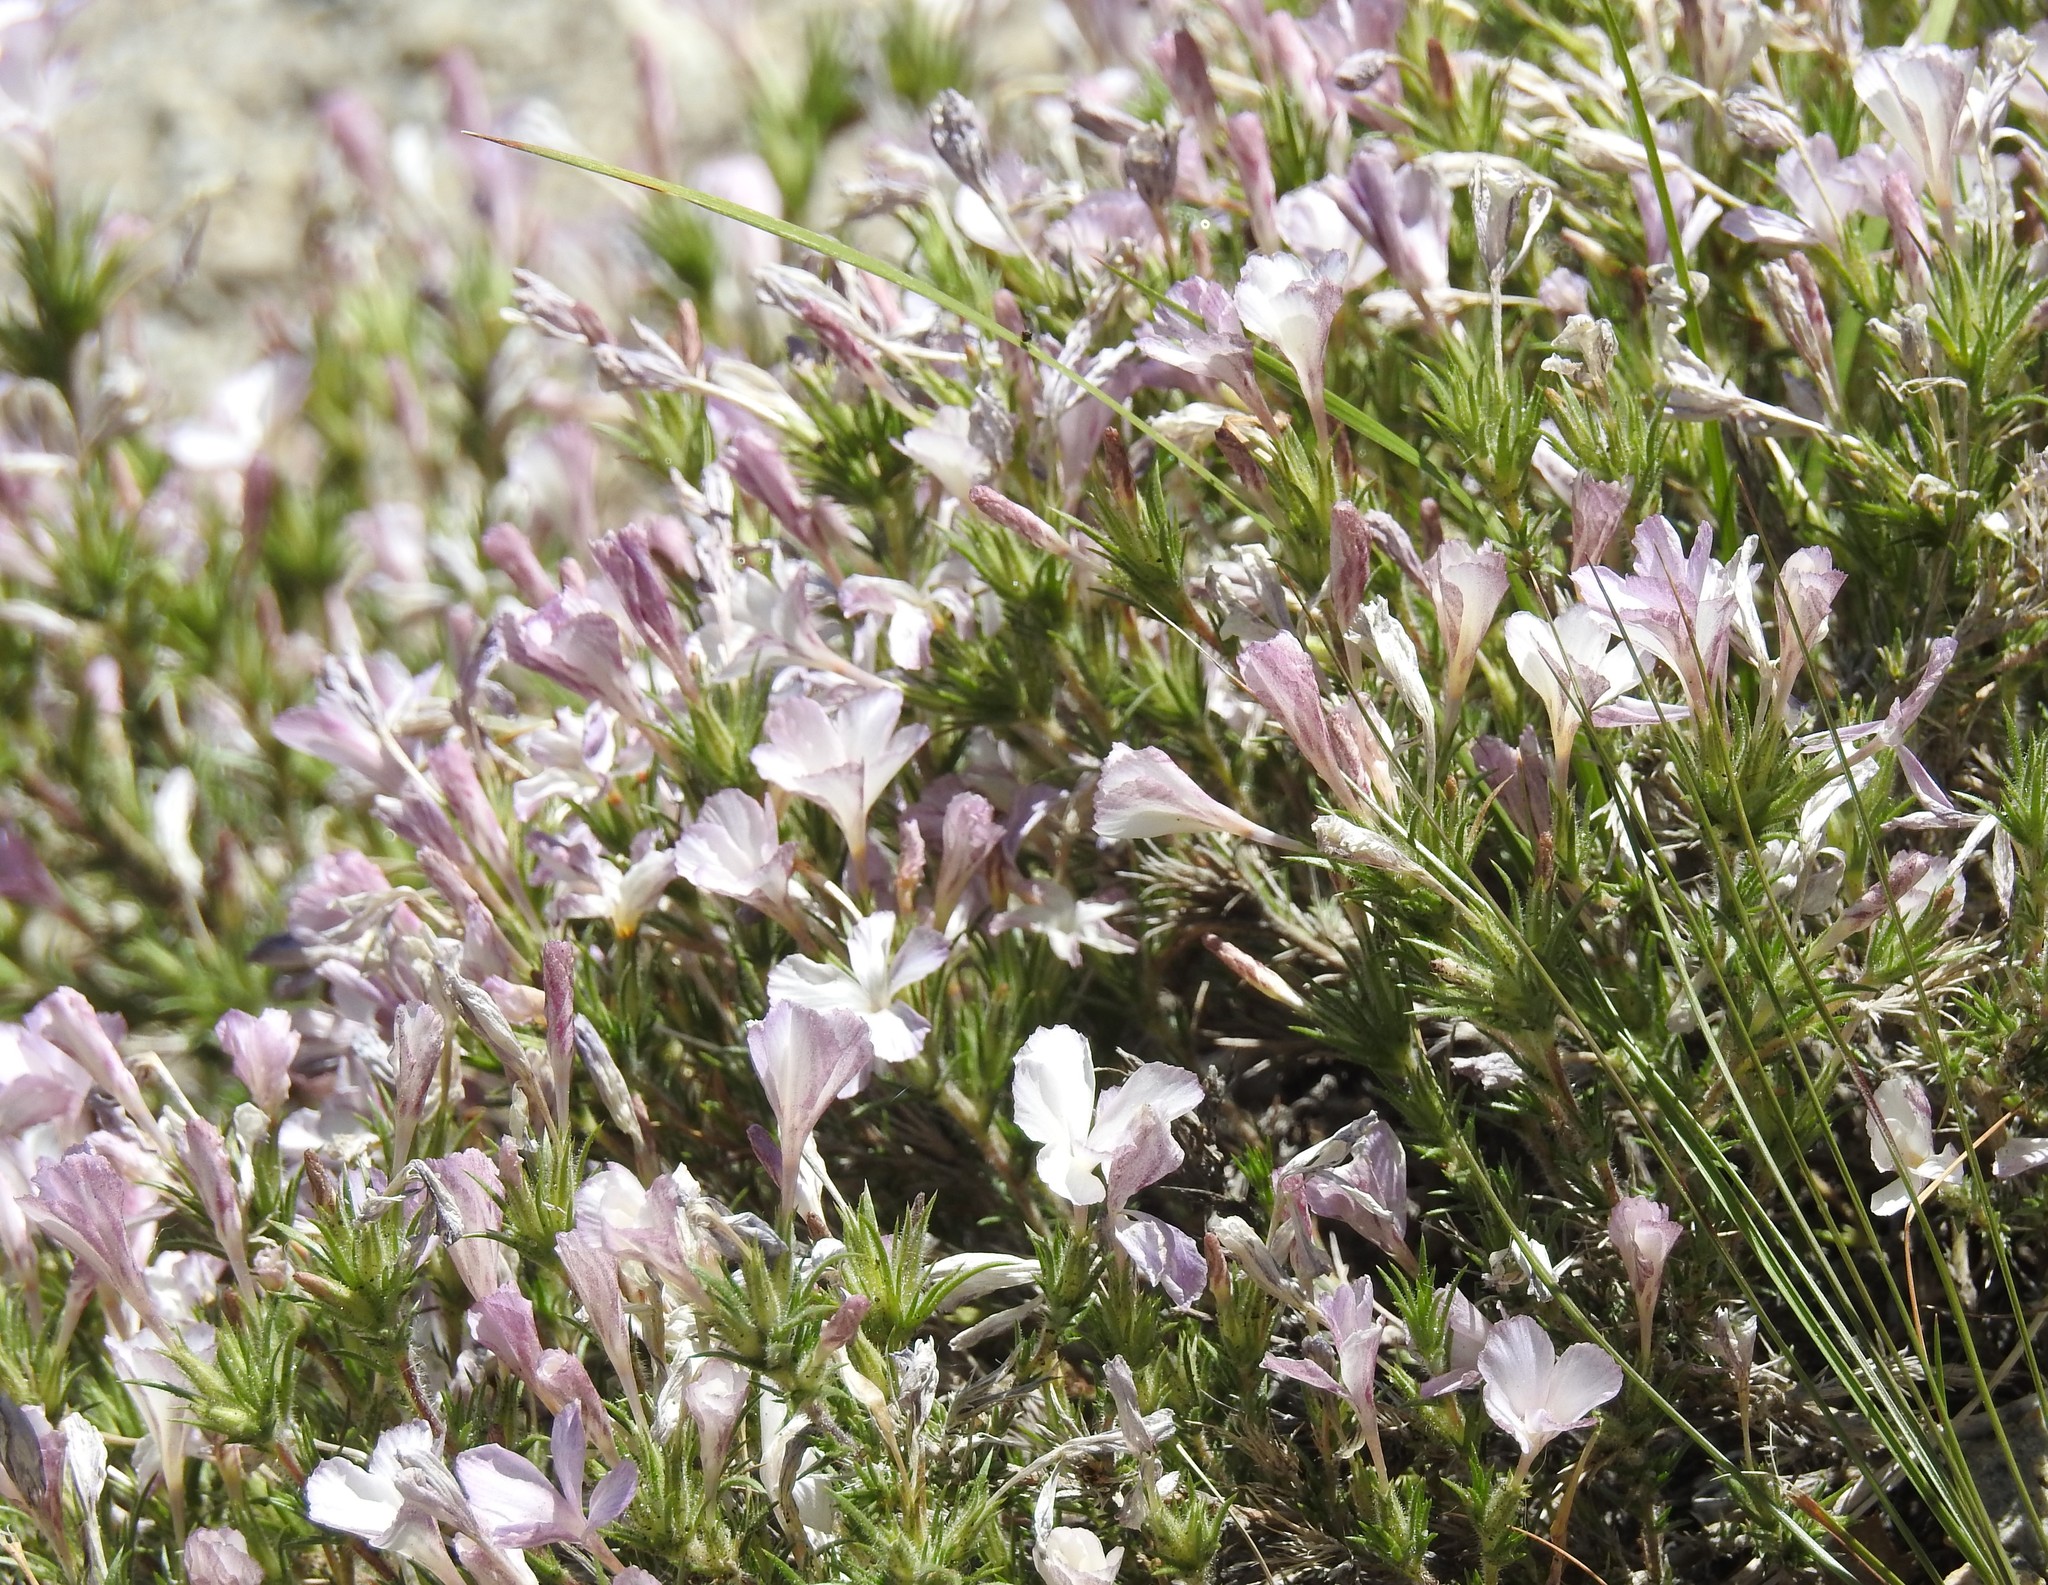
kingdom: Plantae
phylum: Tracheophyta
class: Magnoliopsida
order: Ericales
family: Polemoniaceae
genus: Linanthus
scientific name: Linanthus pungens
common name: Granite prickly phlox
